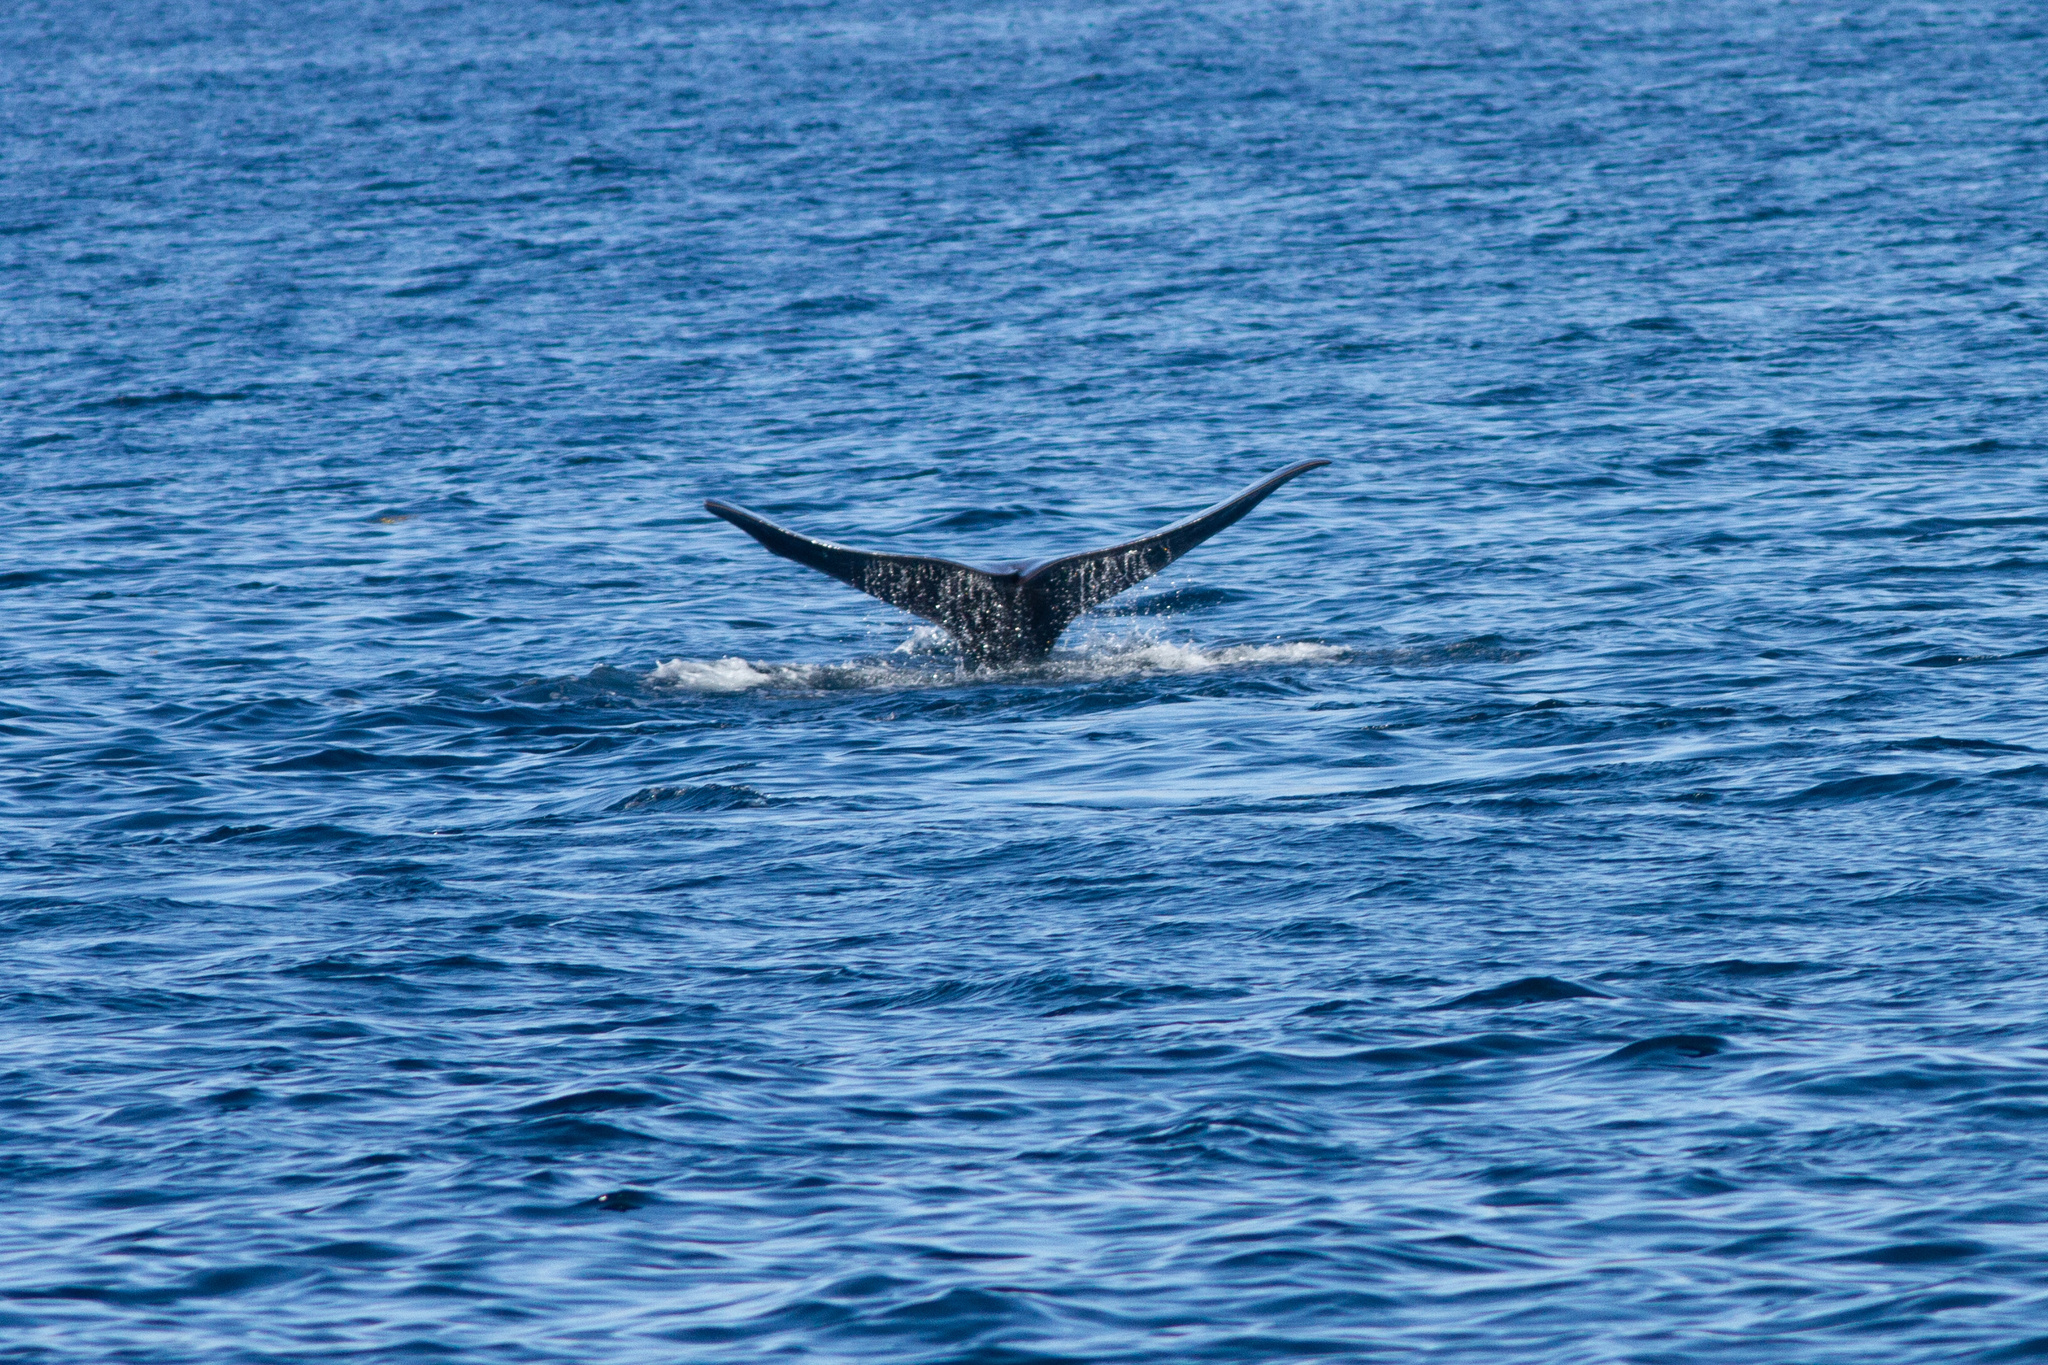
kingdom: Animalia
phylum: Chordata
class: Mammalia
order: Cetacea
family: Physeteridae
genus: Physeter
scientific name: Physeter macrocephalus
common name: Sperm whale
